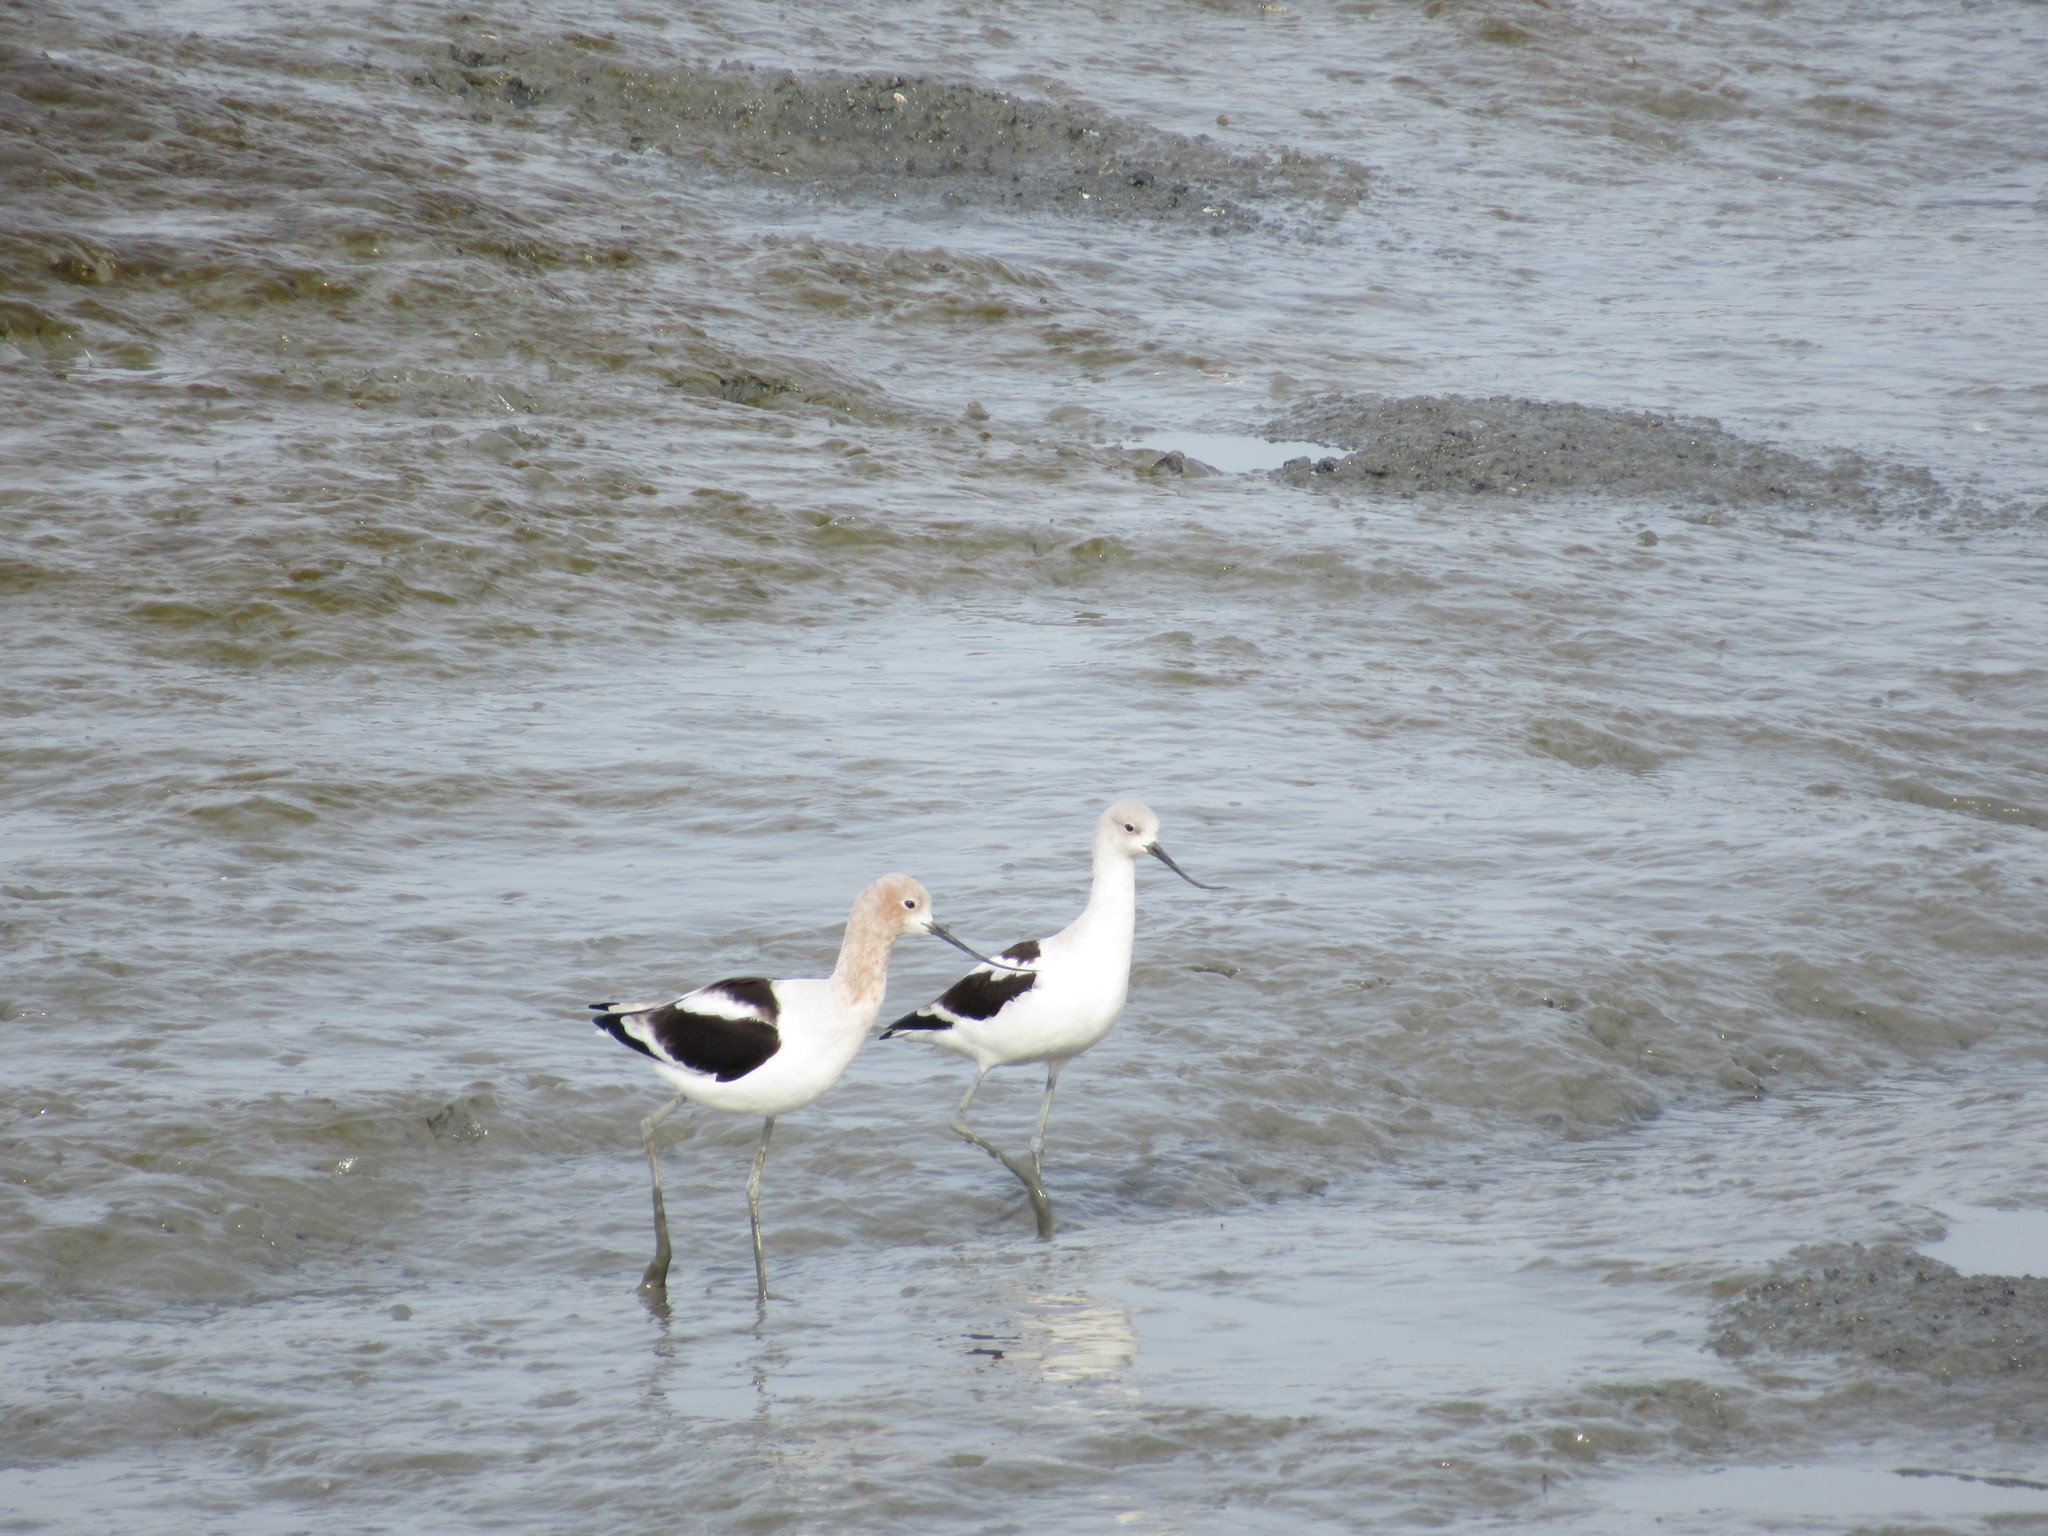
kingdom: Animalia
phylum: Chordata
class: Aves
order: Charadriiformes
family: Recurvirostridae
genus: Recurvirostra
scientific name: Recurvirostra americana
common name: American avocet
